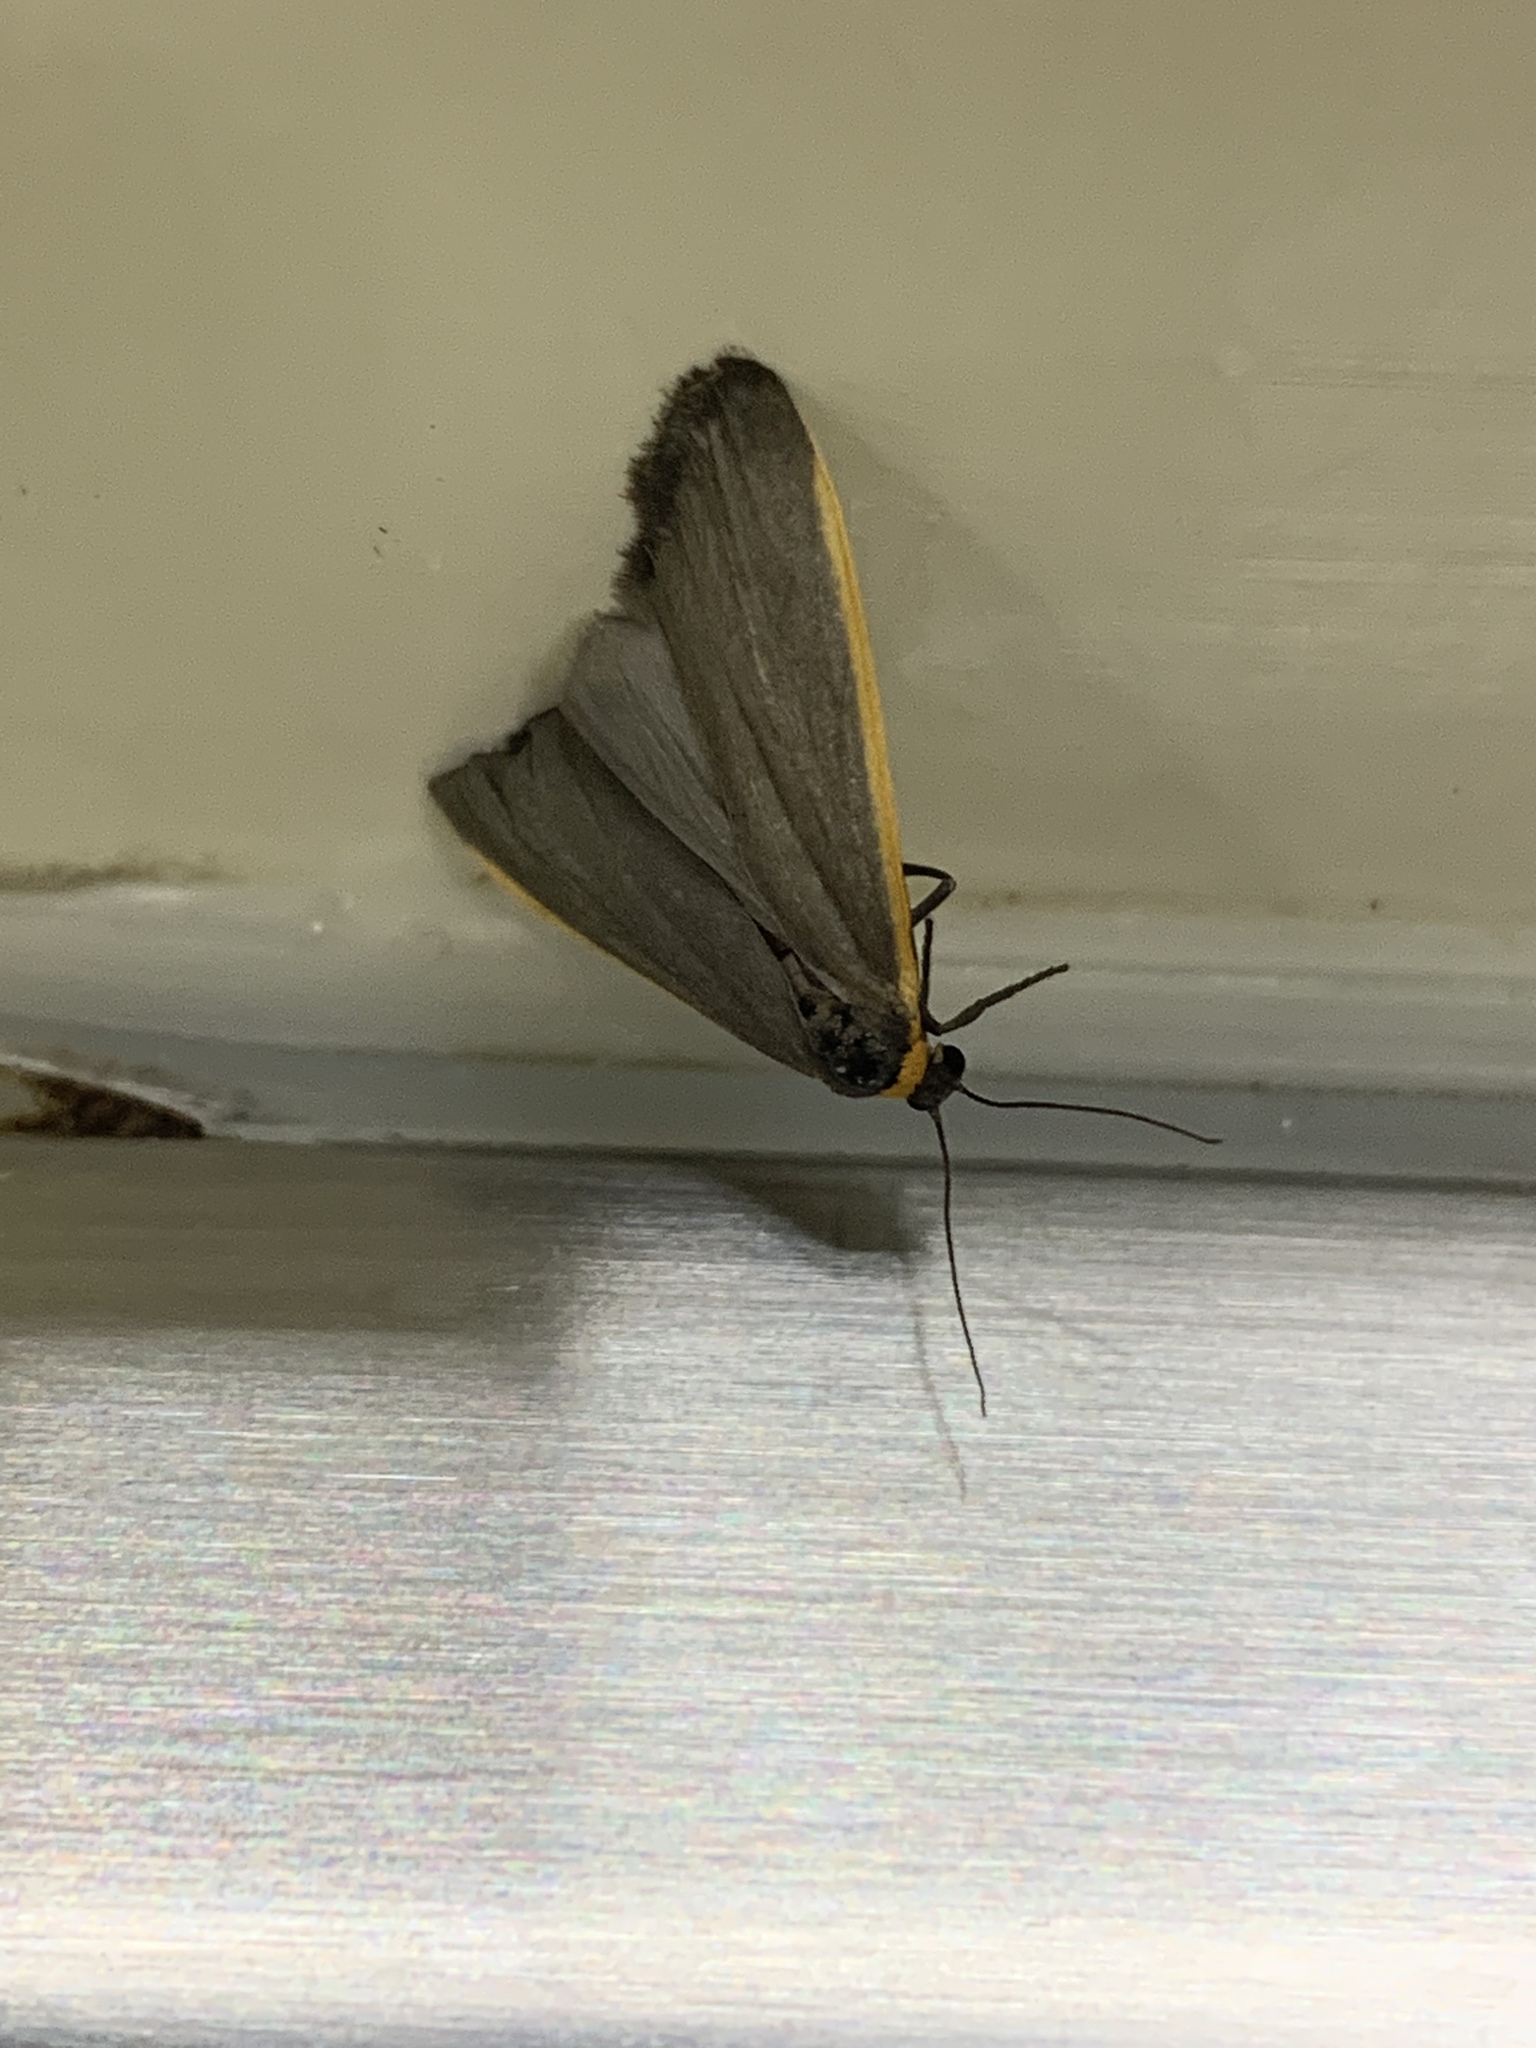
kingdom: Animalia
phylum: Arthropoda
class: Insecta
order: Lepidoptera
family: Erebidae
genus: Manulea
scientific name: Manulea bicolor
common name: Bicolored moth
